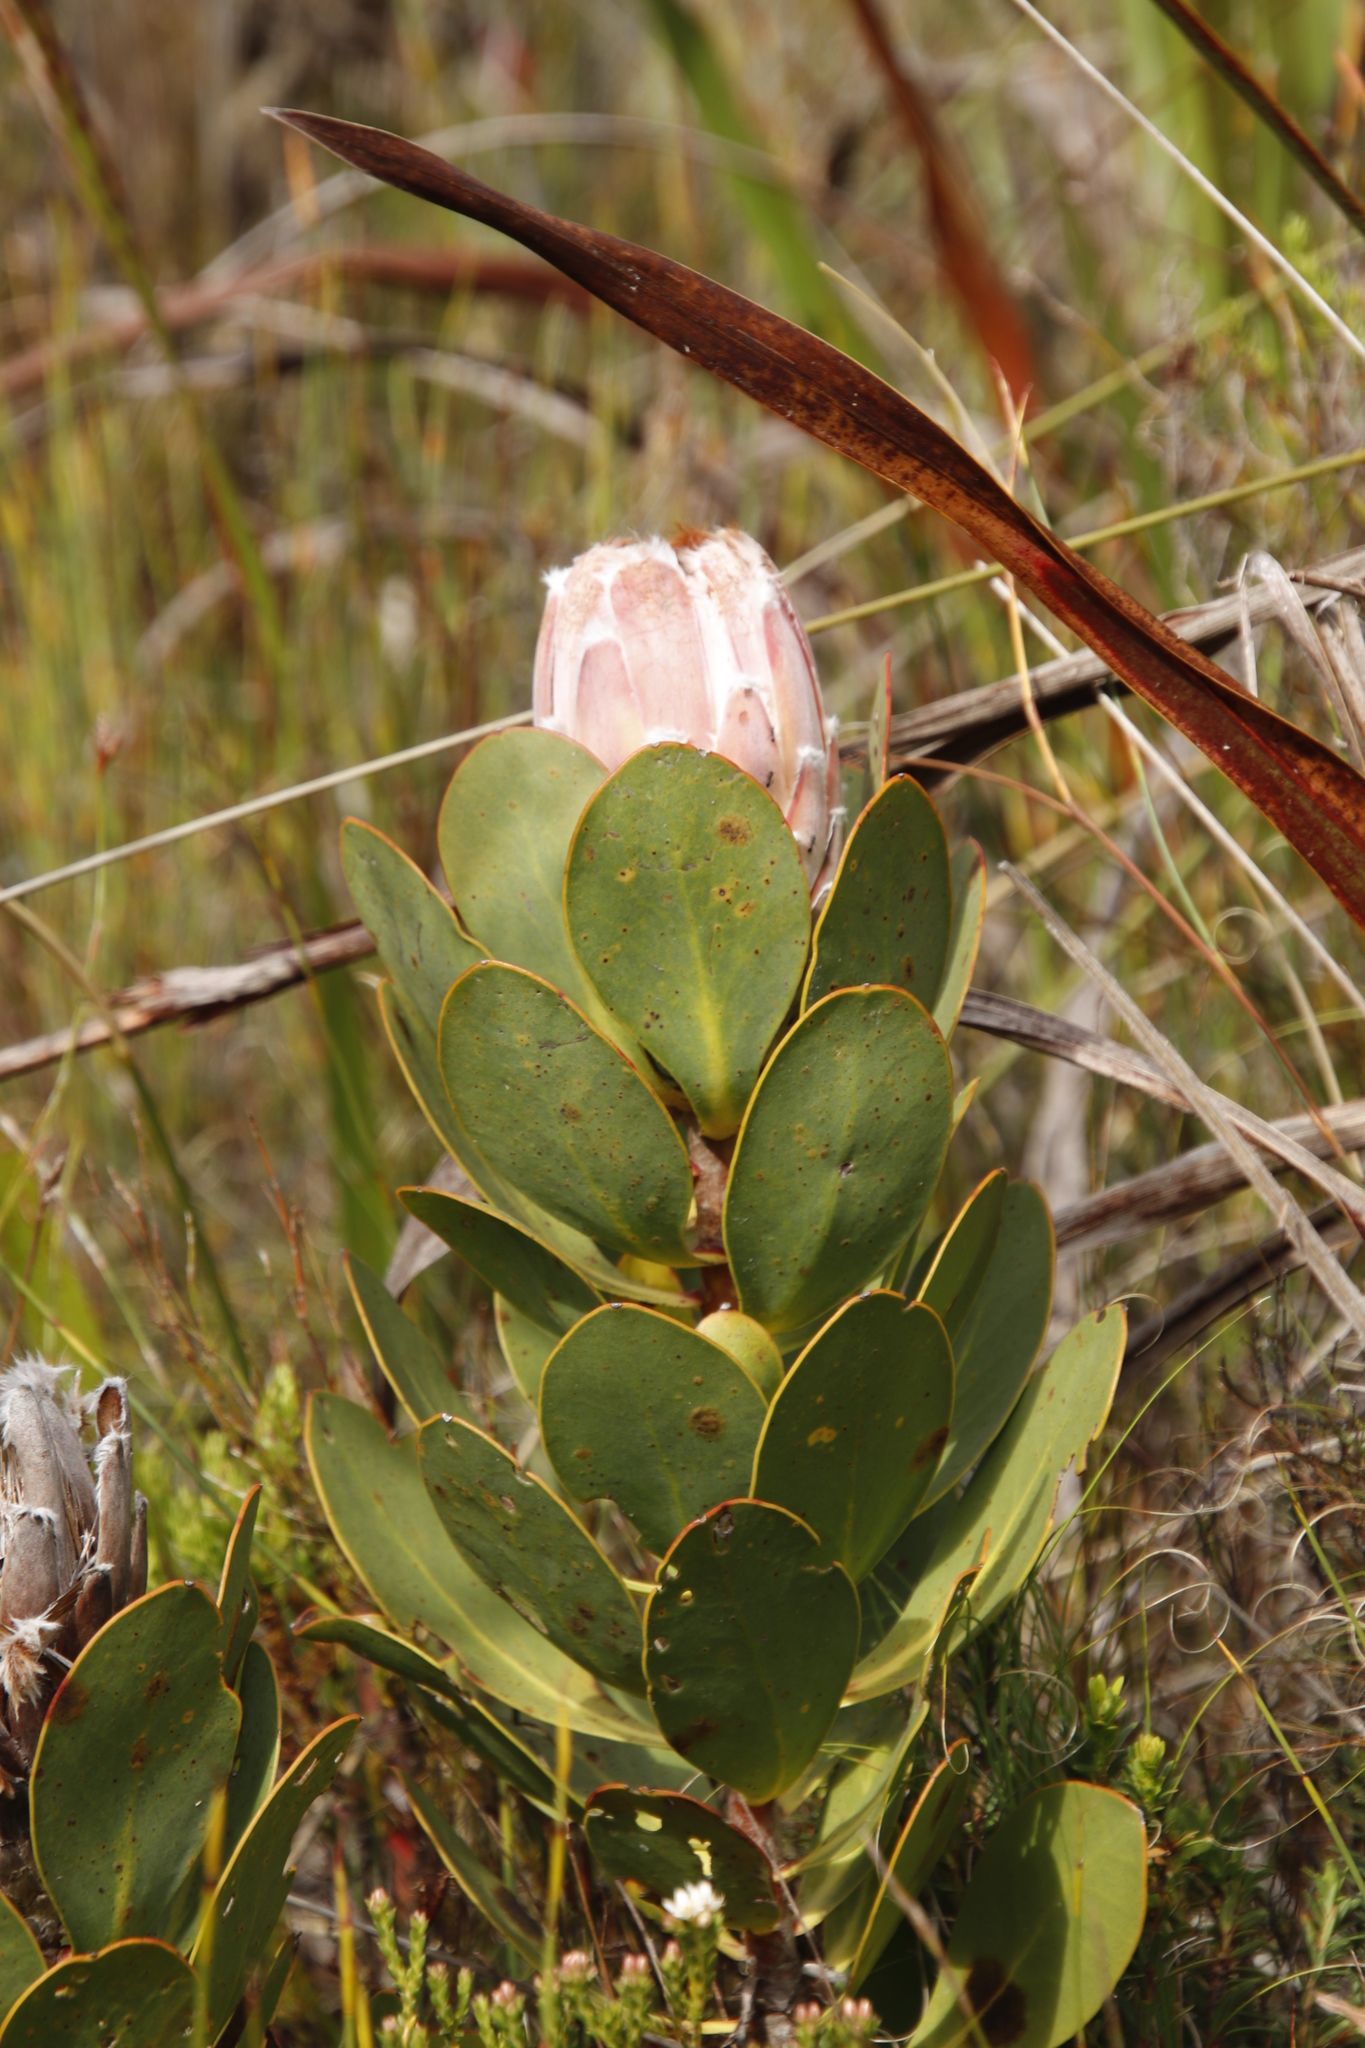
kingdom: Plantae
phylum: Tracheophyta
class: Magnoliopsida
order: Proteales
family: Proteaceae
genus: Protea
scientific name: Protea speciosa
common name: Brown-beard sugarbush
